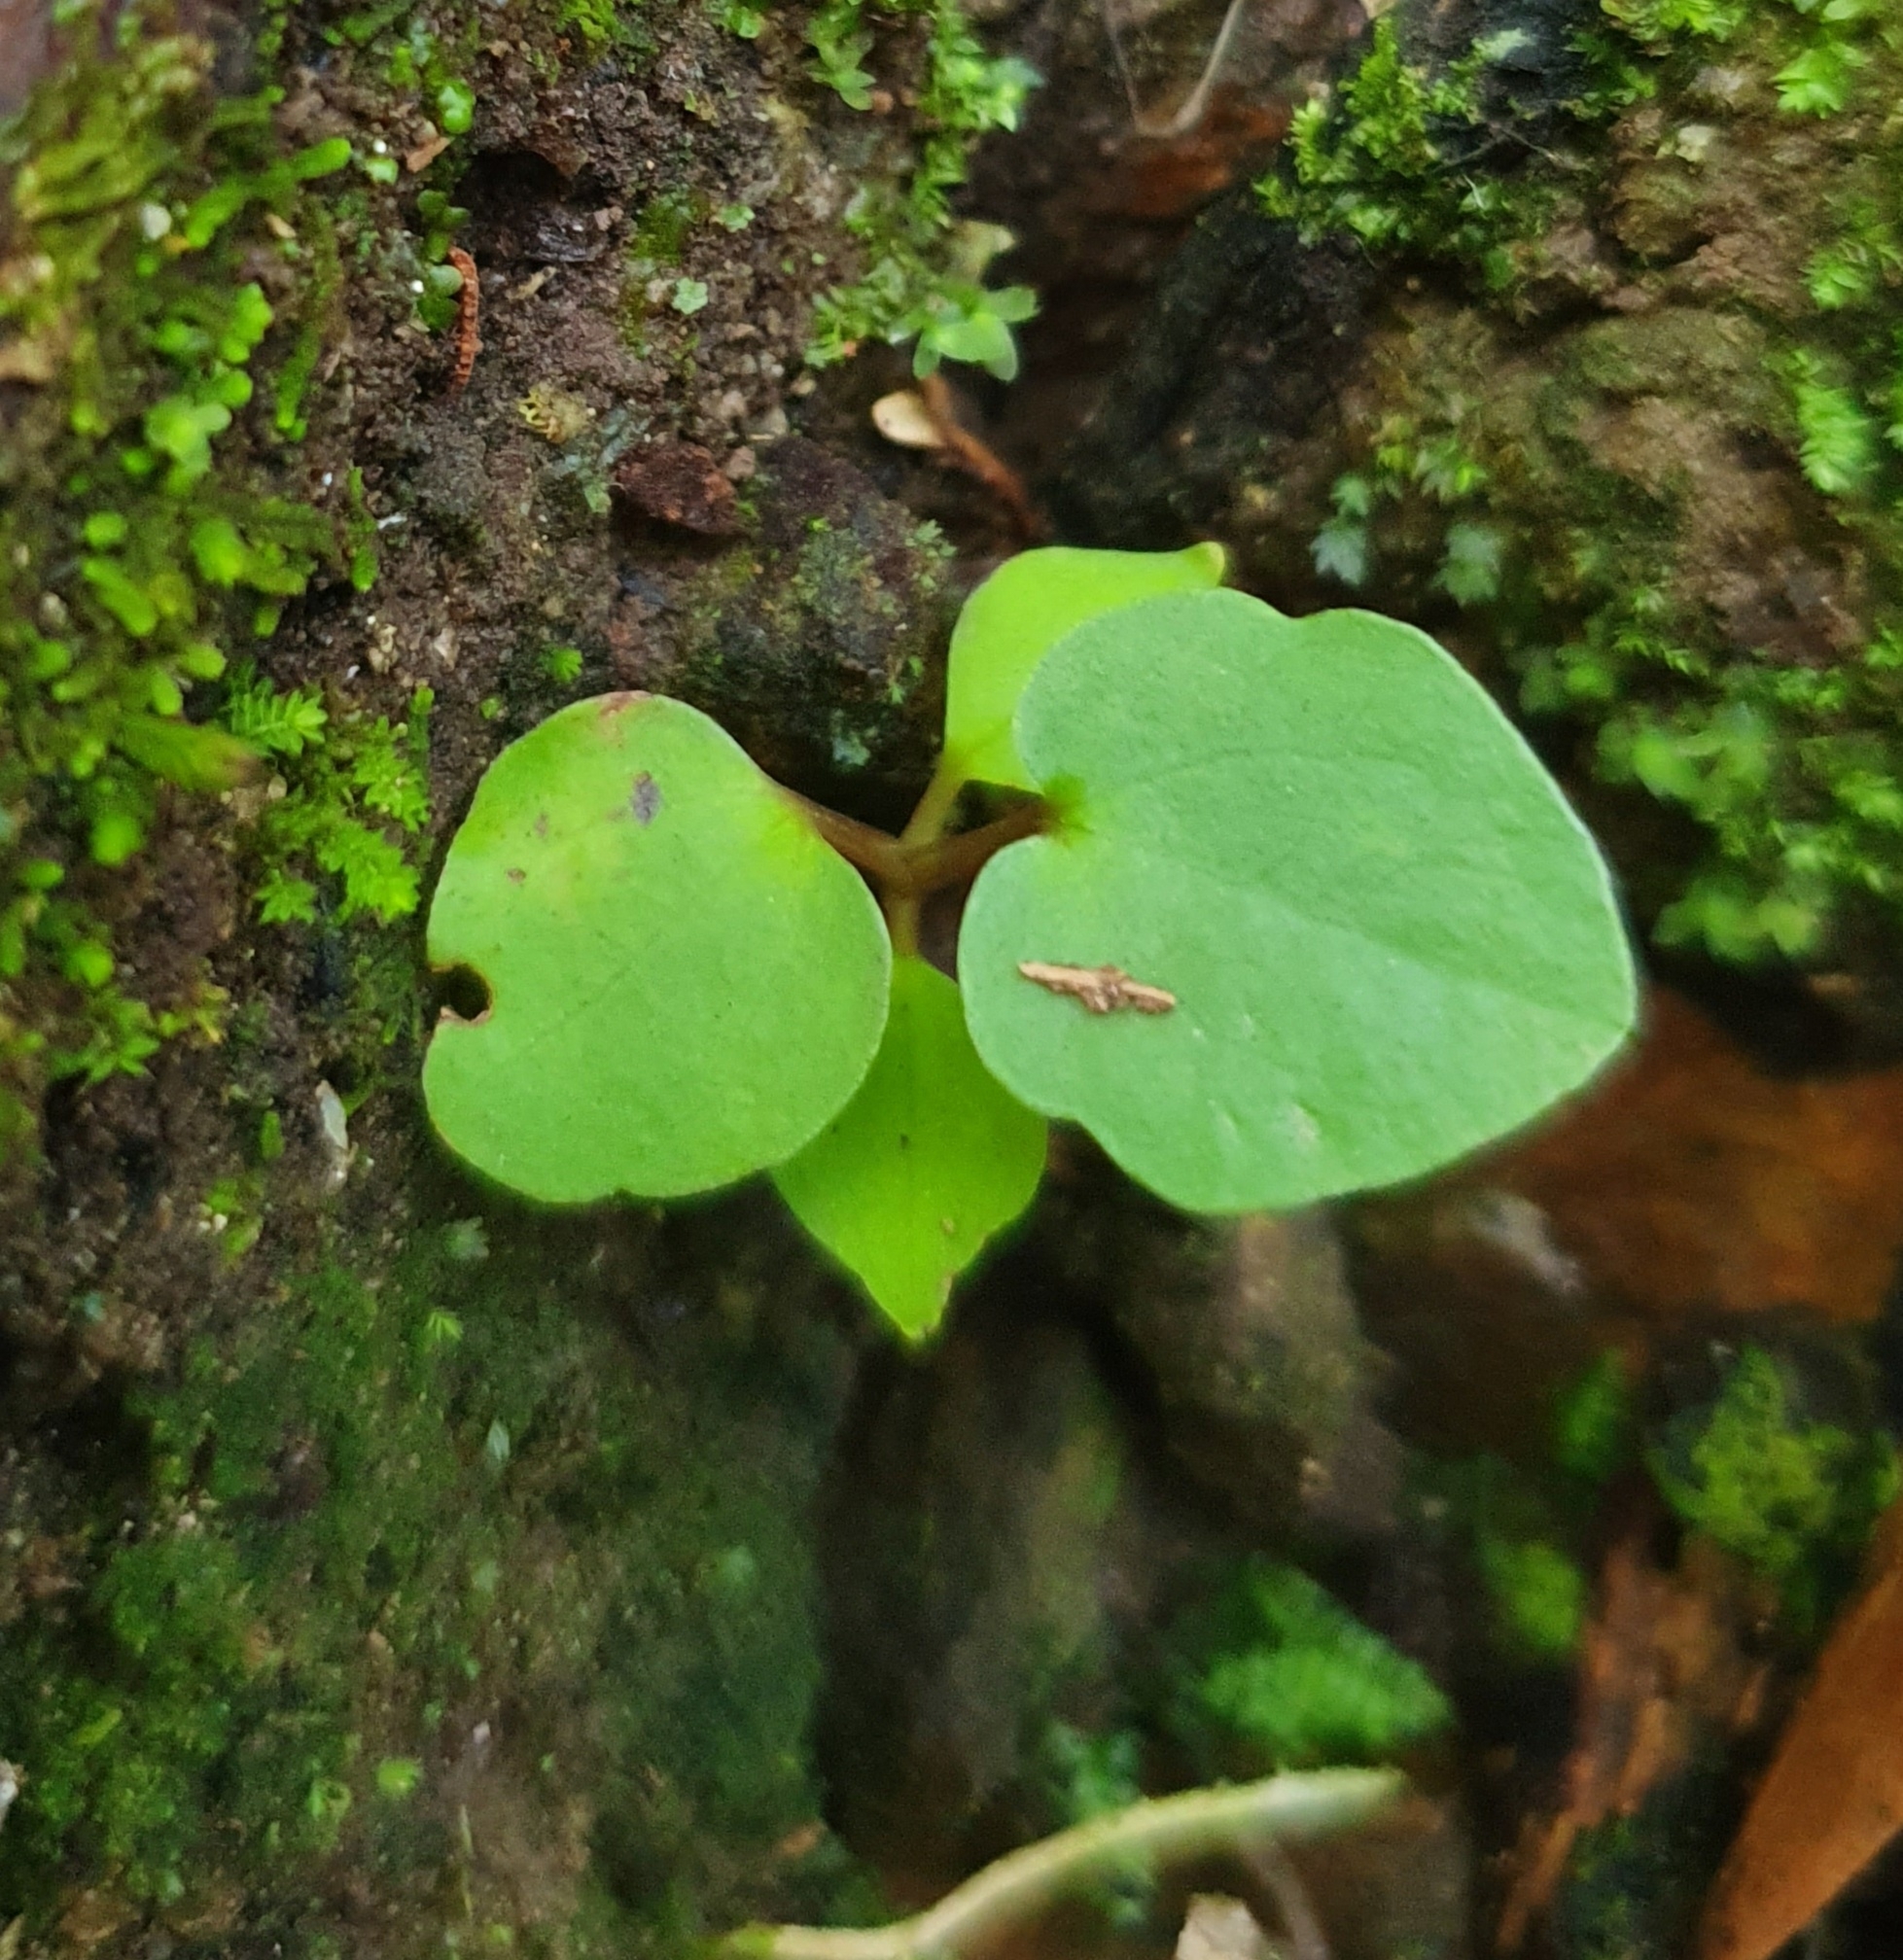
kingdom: Plantae
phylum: Tracheophyta
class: Magnoliopsida
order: Piperales
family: Piperaceae
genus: Macropiper
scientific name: Macropiper excelsum
